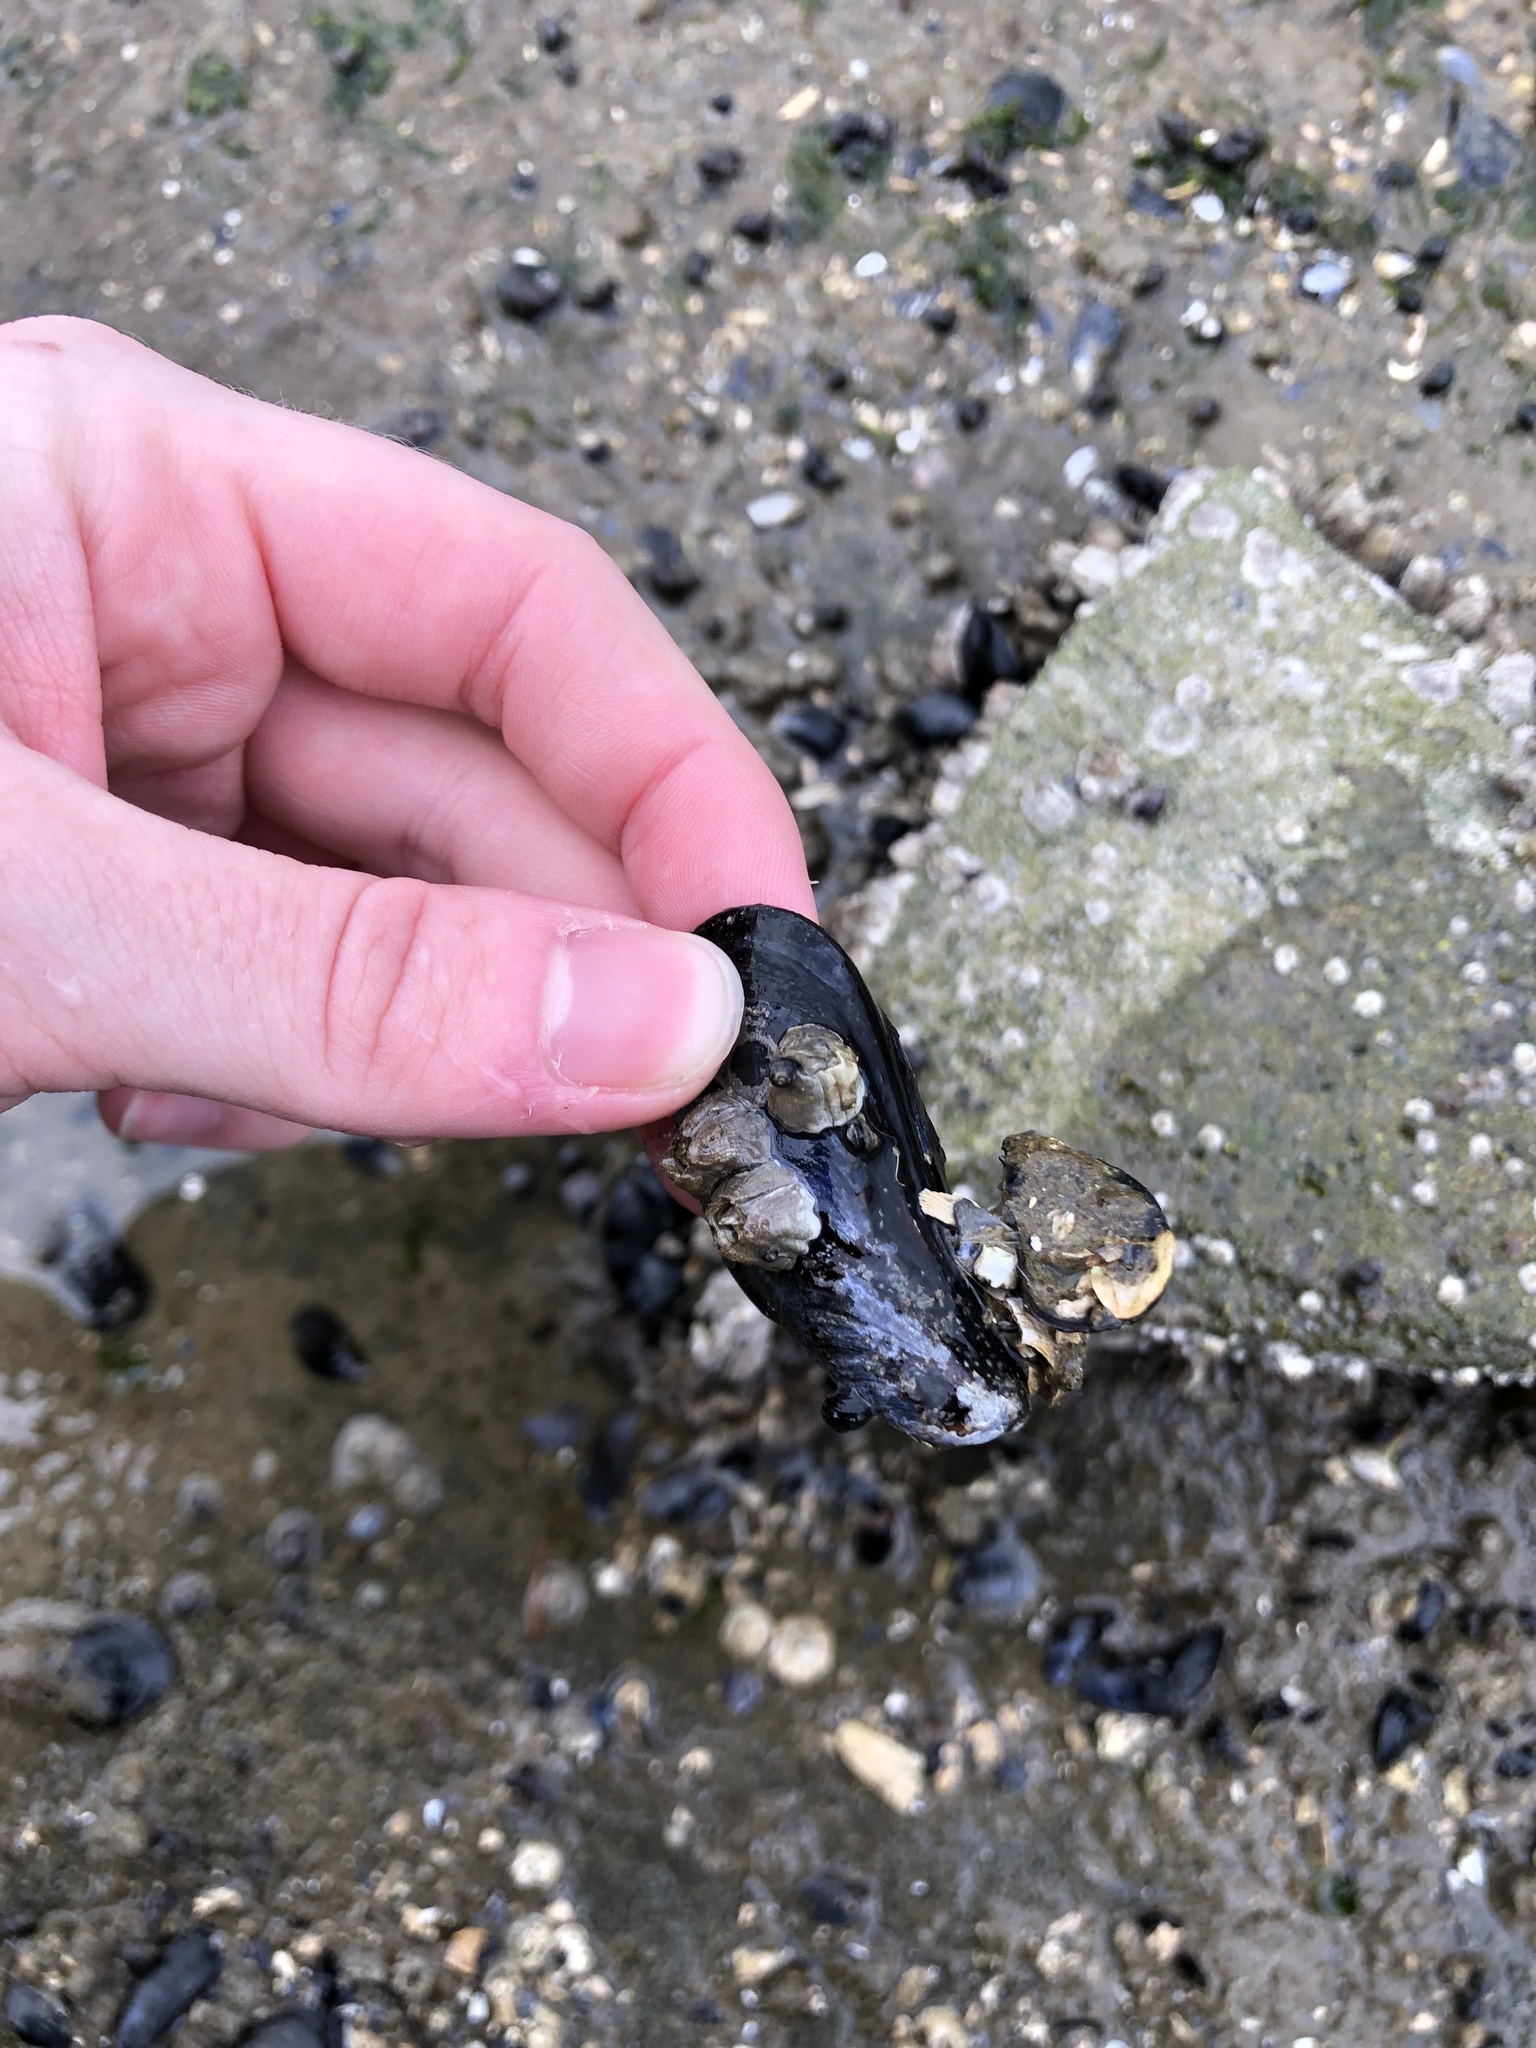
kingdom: Animalia
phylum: Mollusca
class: Bivalvia
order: Mytilida
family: Mytilidae
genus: Mytilus
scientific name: Mytilus californianus
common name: California mussel
